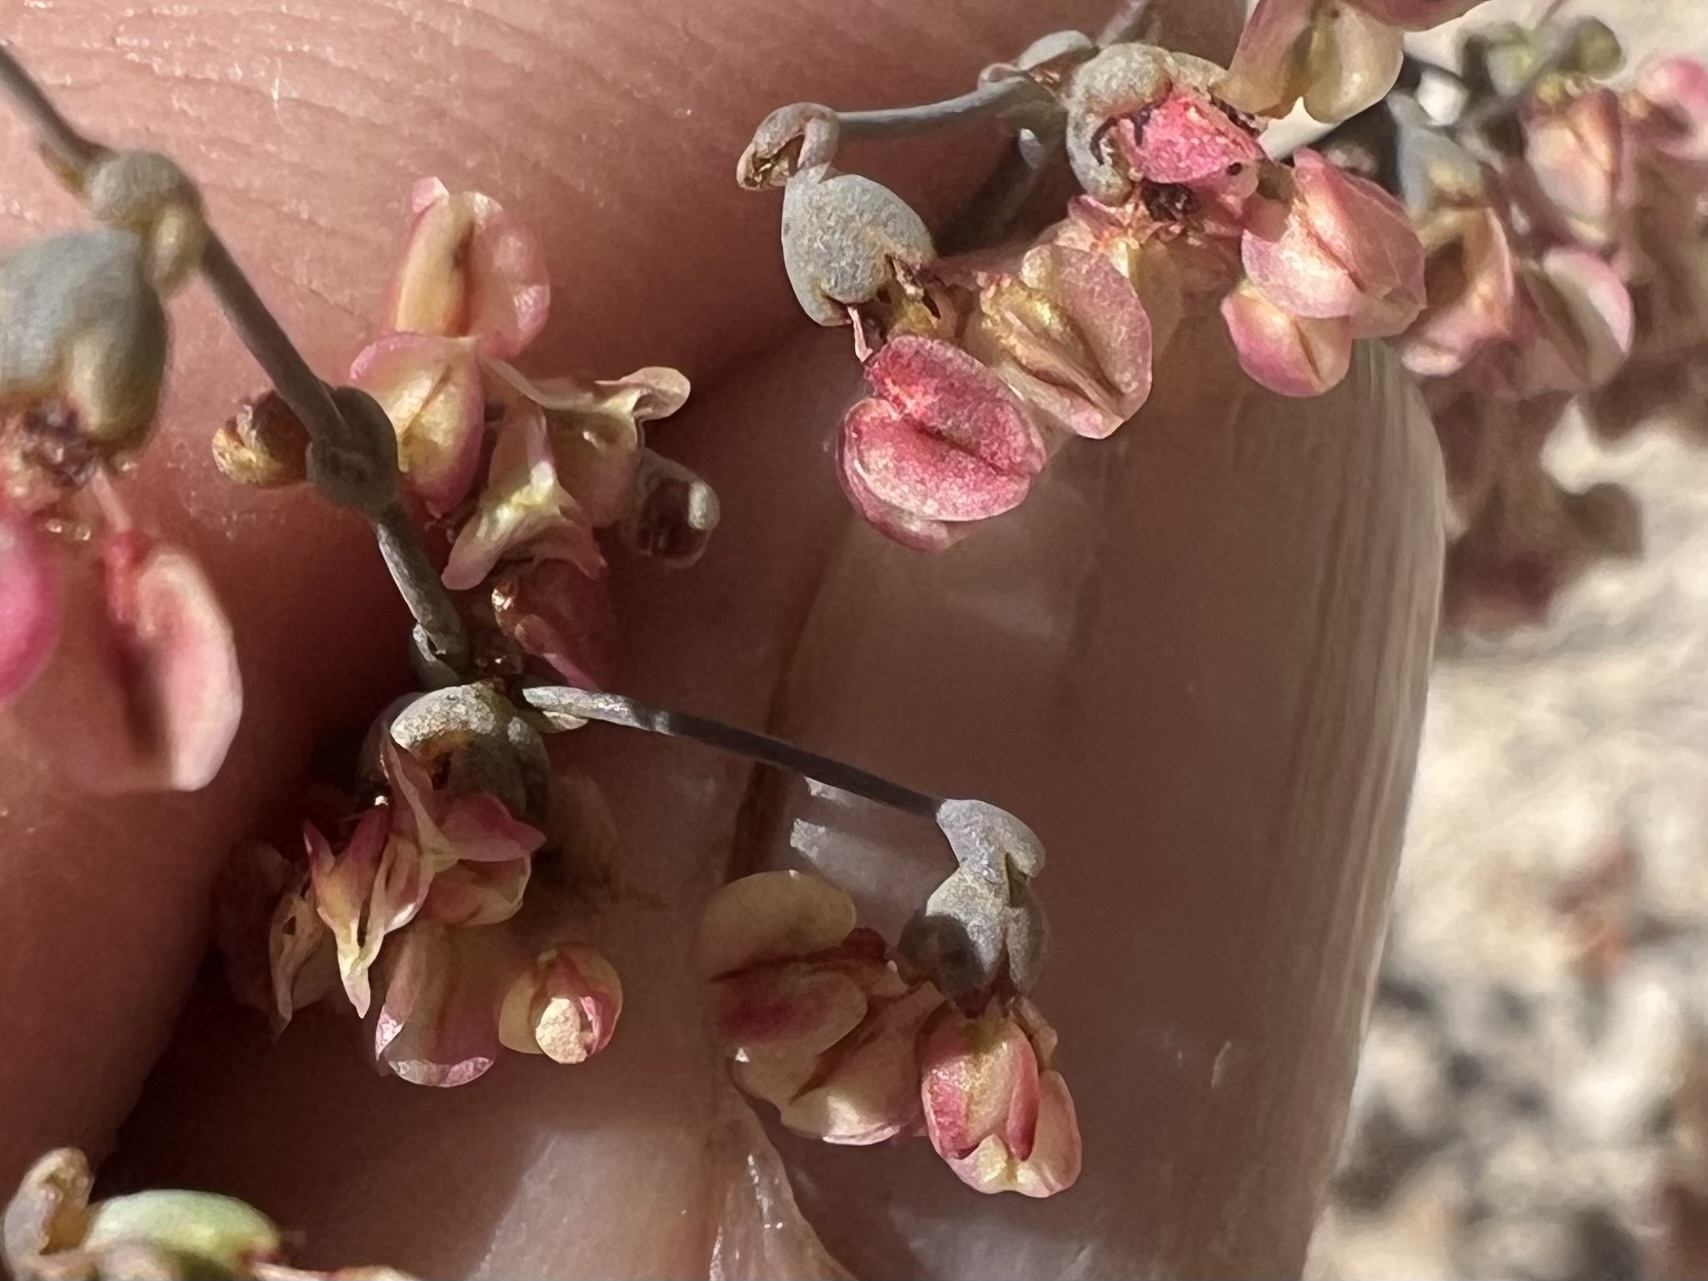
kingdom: Plantae
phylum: Tracheophyta
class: Magnoliopsida
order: Caryophyllales
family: Polygonaceae
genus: Eriogonum
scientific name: Eriogonum hookeri
